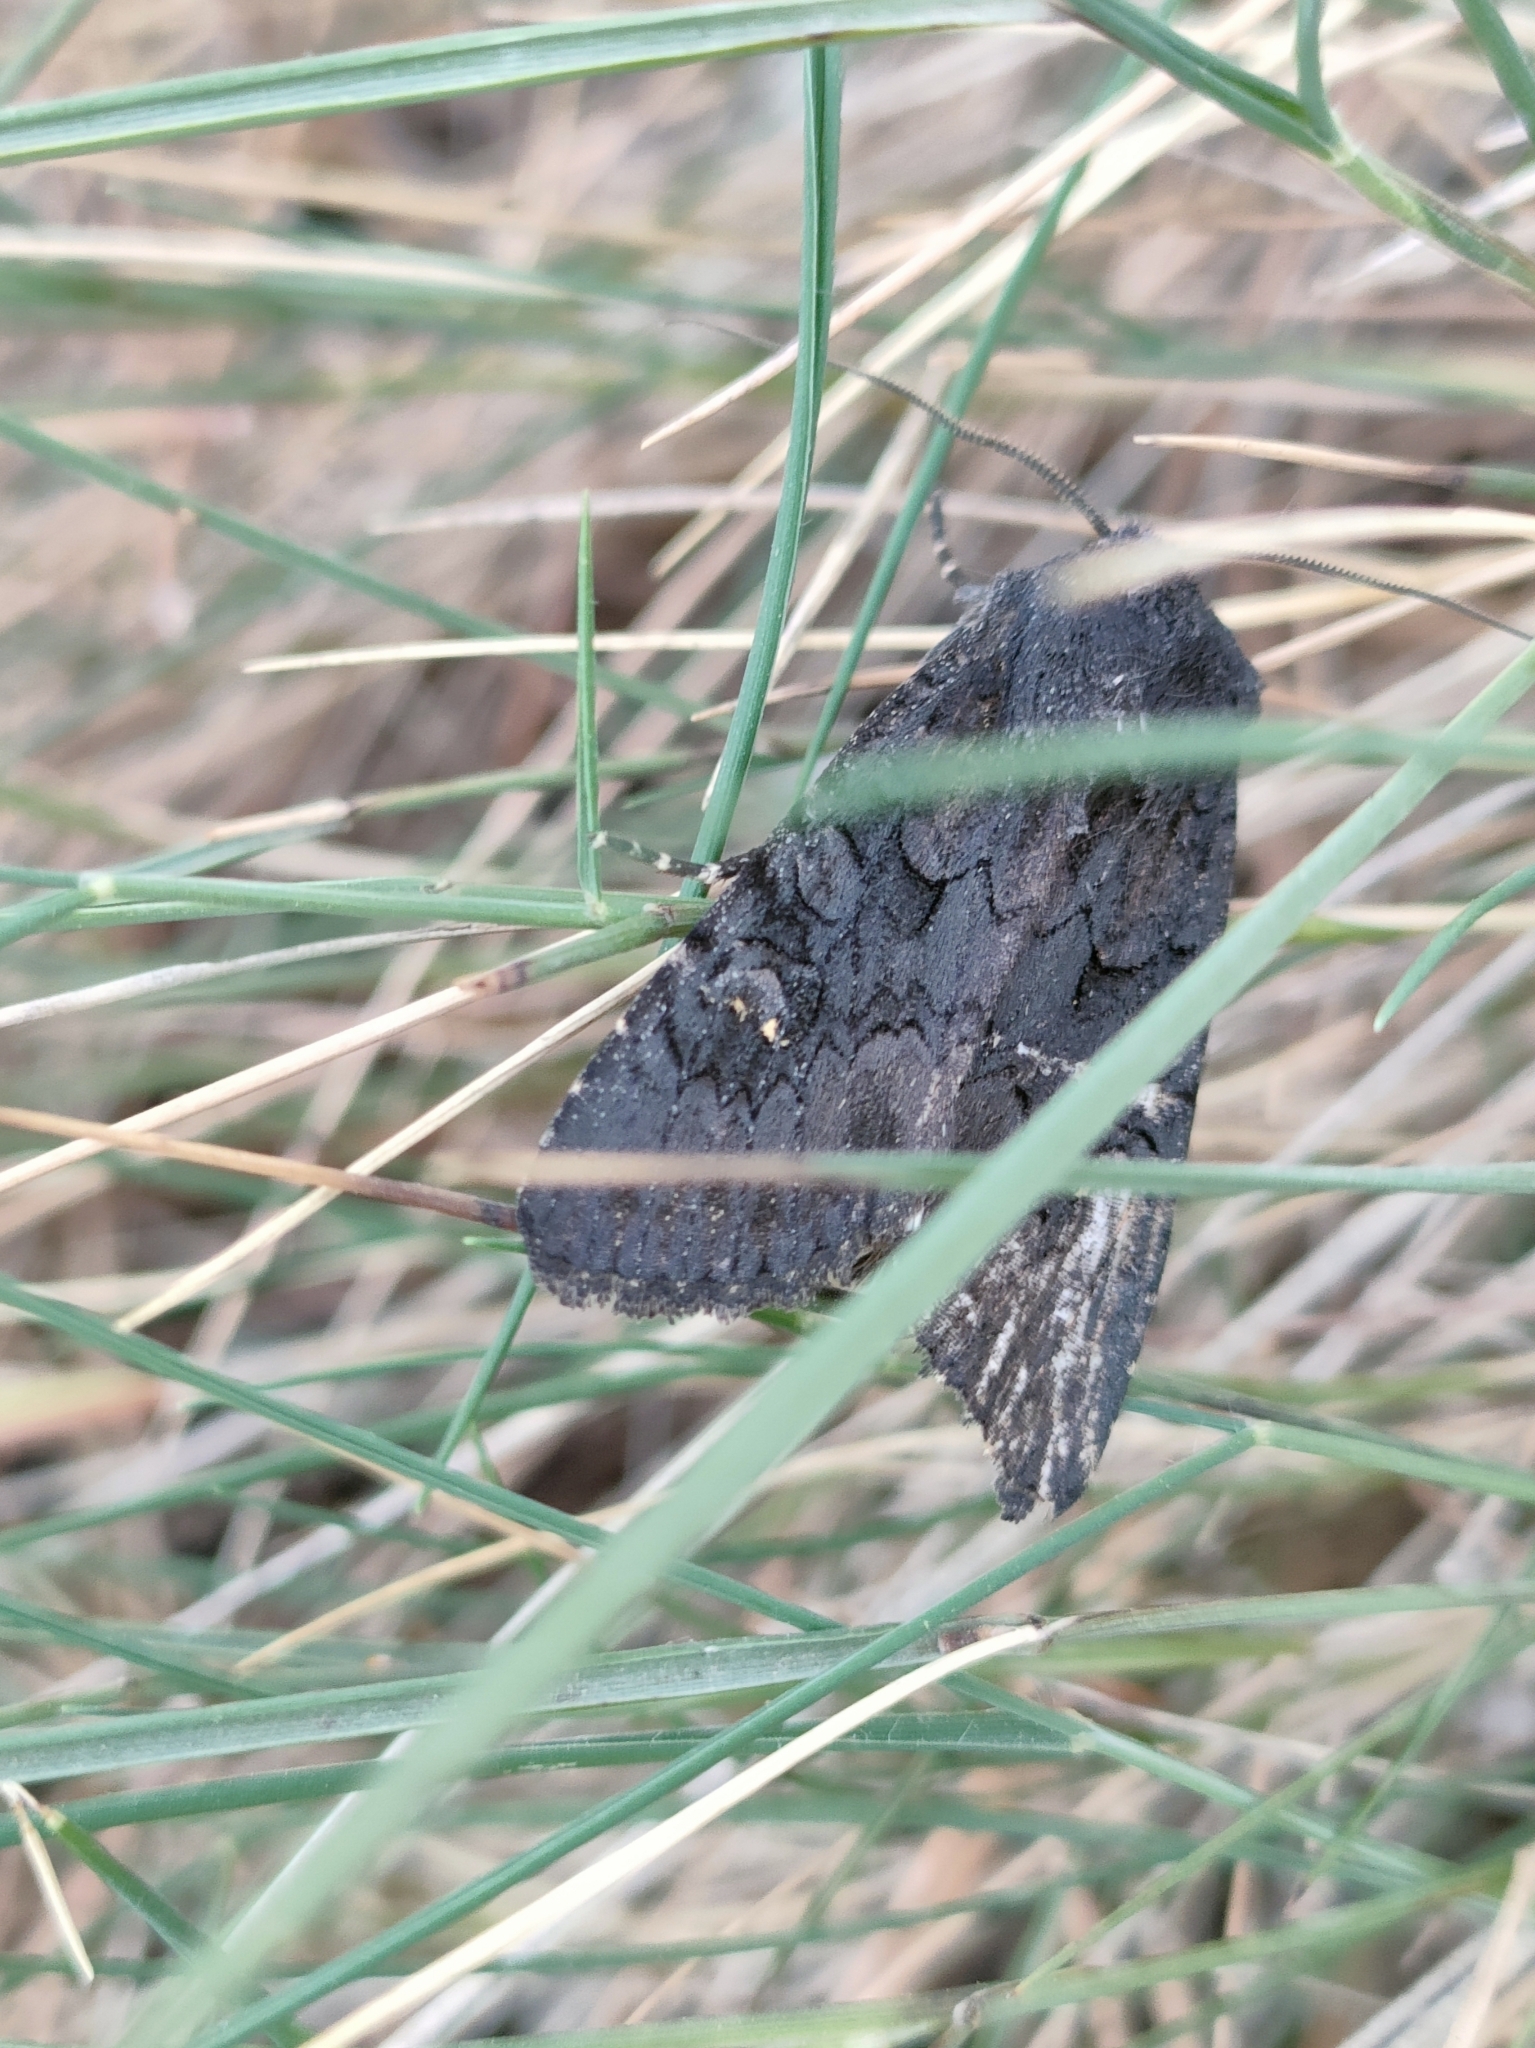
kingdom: Animalia
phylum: Arthropoda
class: Insecta
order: Lepidoptera
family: Noctuidae
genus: Aporophyla
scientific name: Aporophyla nigra
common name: Black rustic
